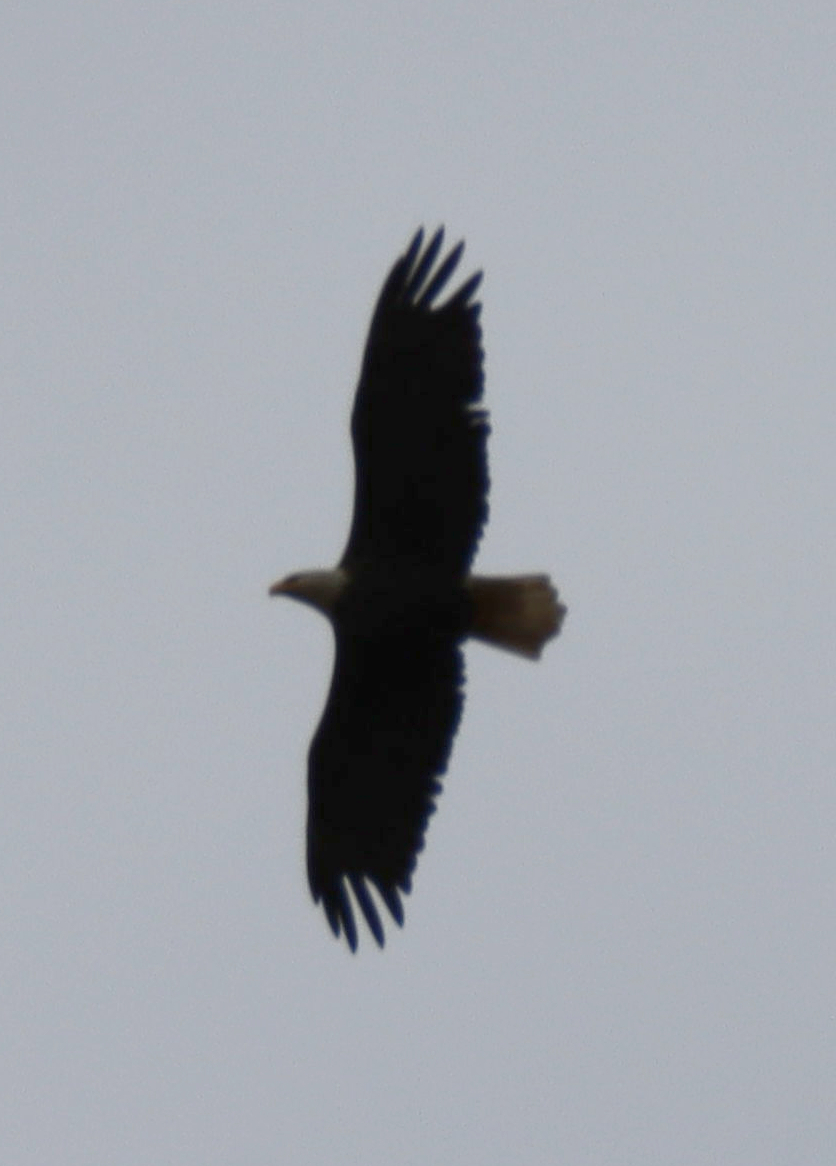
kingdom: Animalia
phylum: Chordata
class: Aves
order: Accipitriformes
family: Accipitridae
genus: Haliaeetus
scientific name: Haliaeetus leucocephalus
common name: Bald eagle
